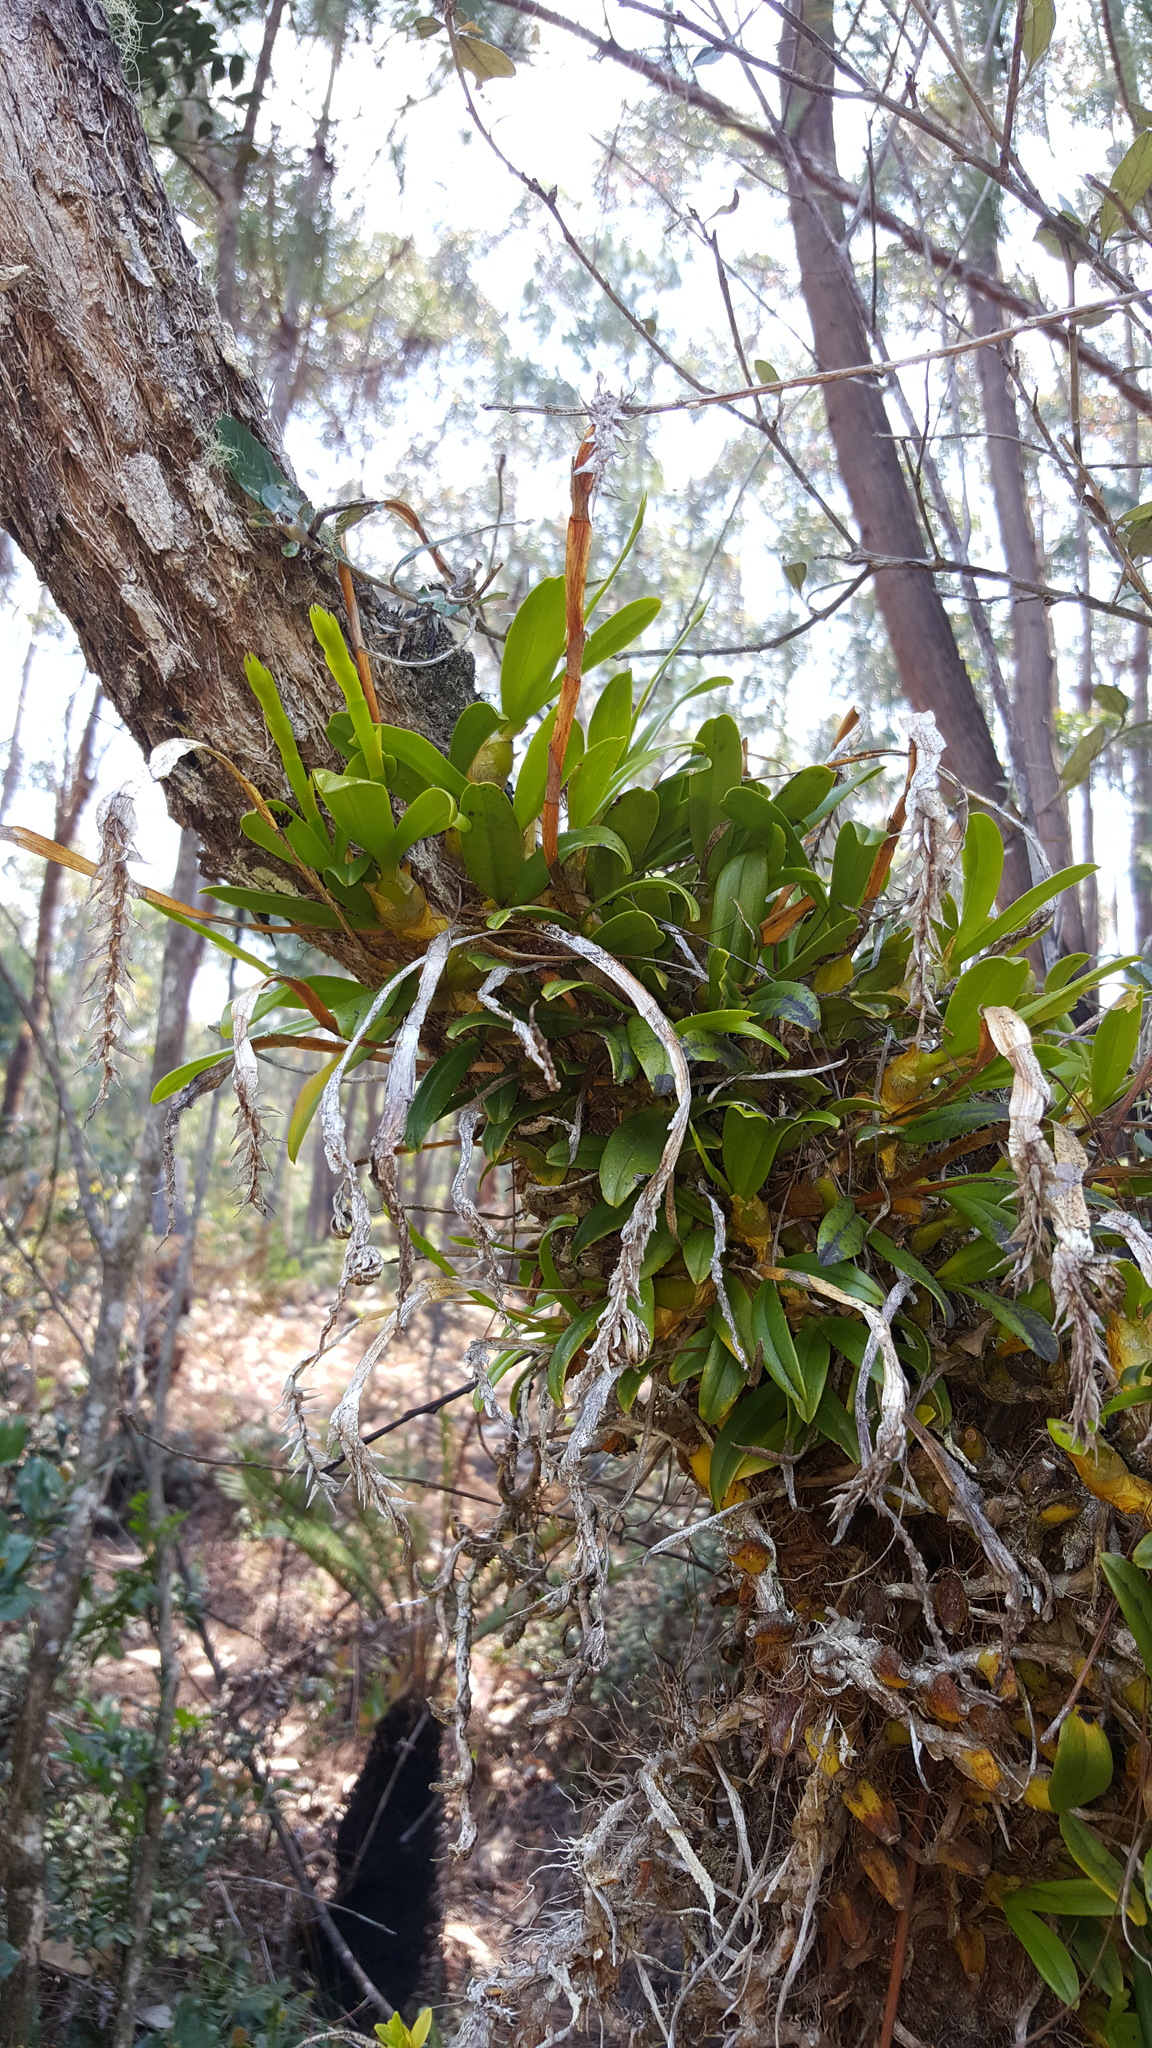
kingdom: Plantae
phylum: Tracheophyta
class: Liliopsida
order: Asparagales
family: Orchidaceae
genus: Bulbophyllum
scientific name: Bulbophyllum platypodum
